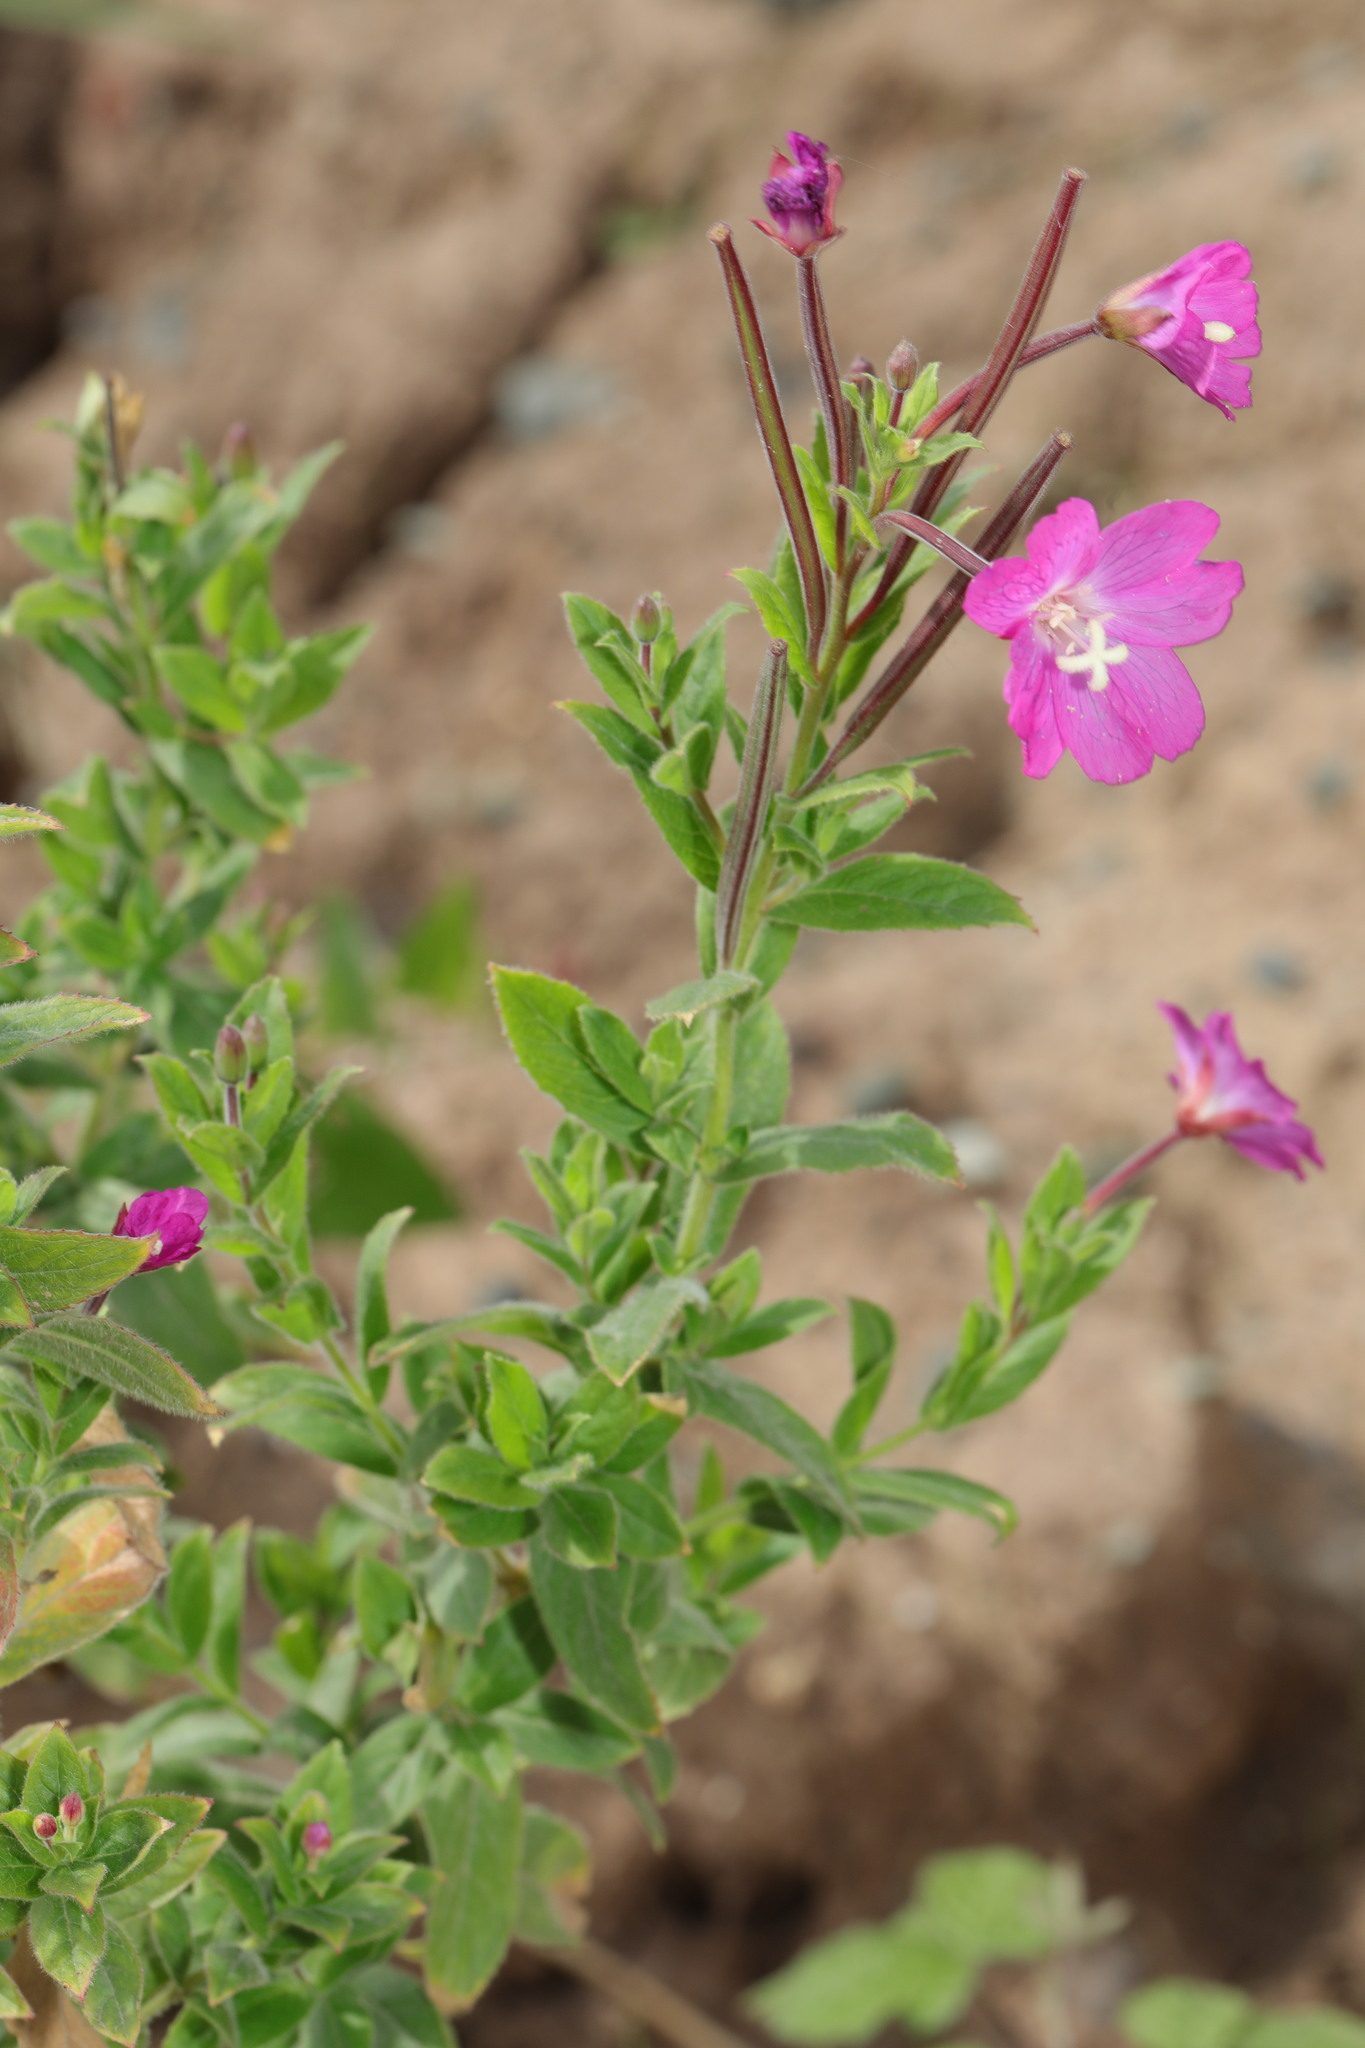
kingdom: Plantae
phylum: Tracheophyta
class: Magnoliopsida
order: Myrtales
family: Onagraceae
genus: Epilobium
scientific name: Epilobium hirsutum
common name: Great willowherb
